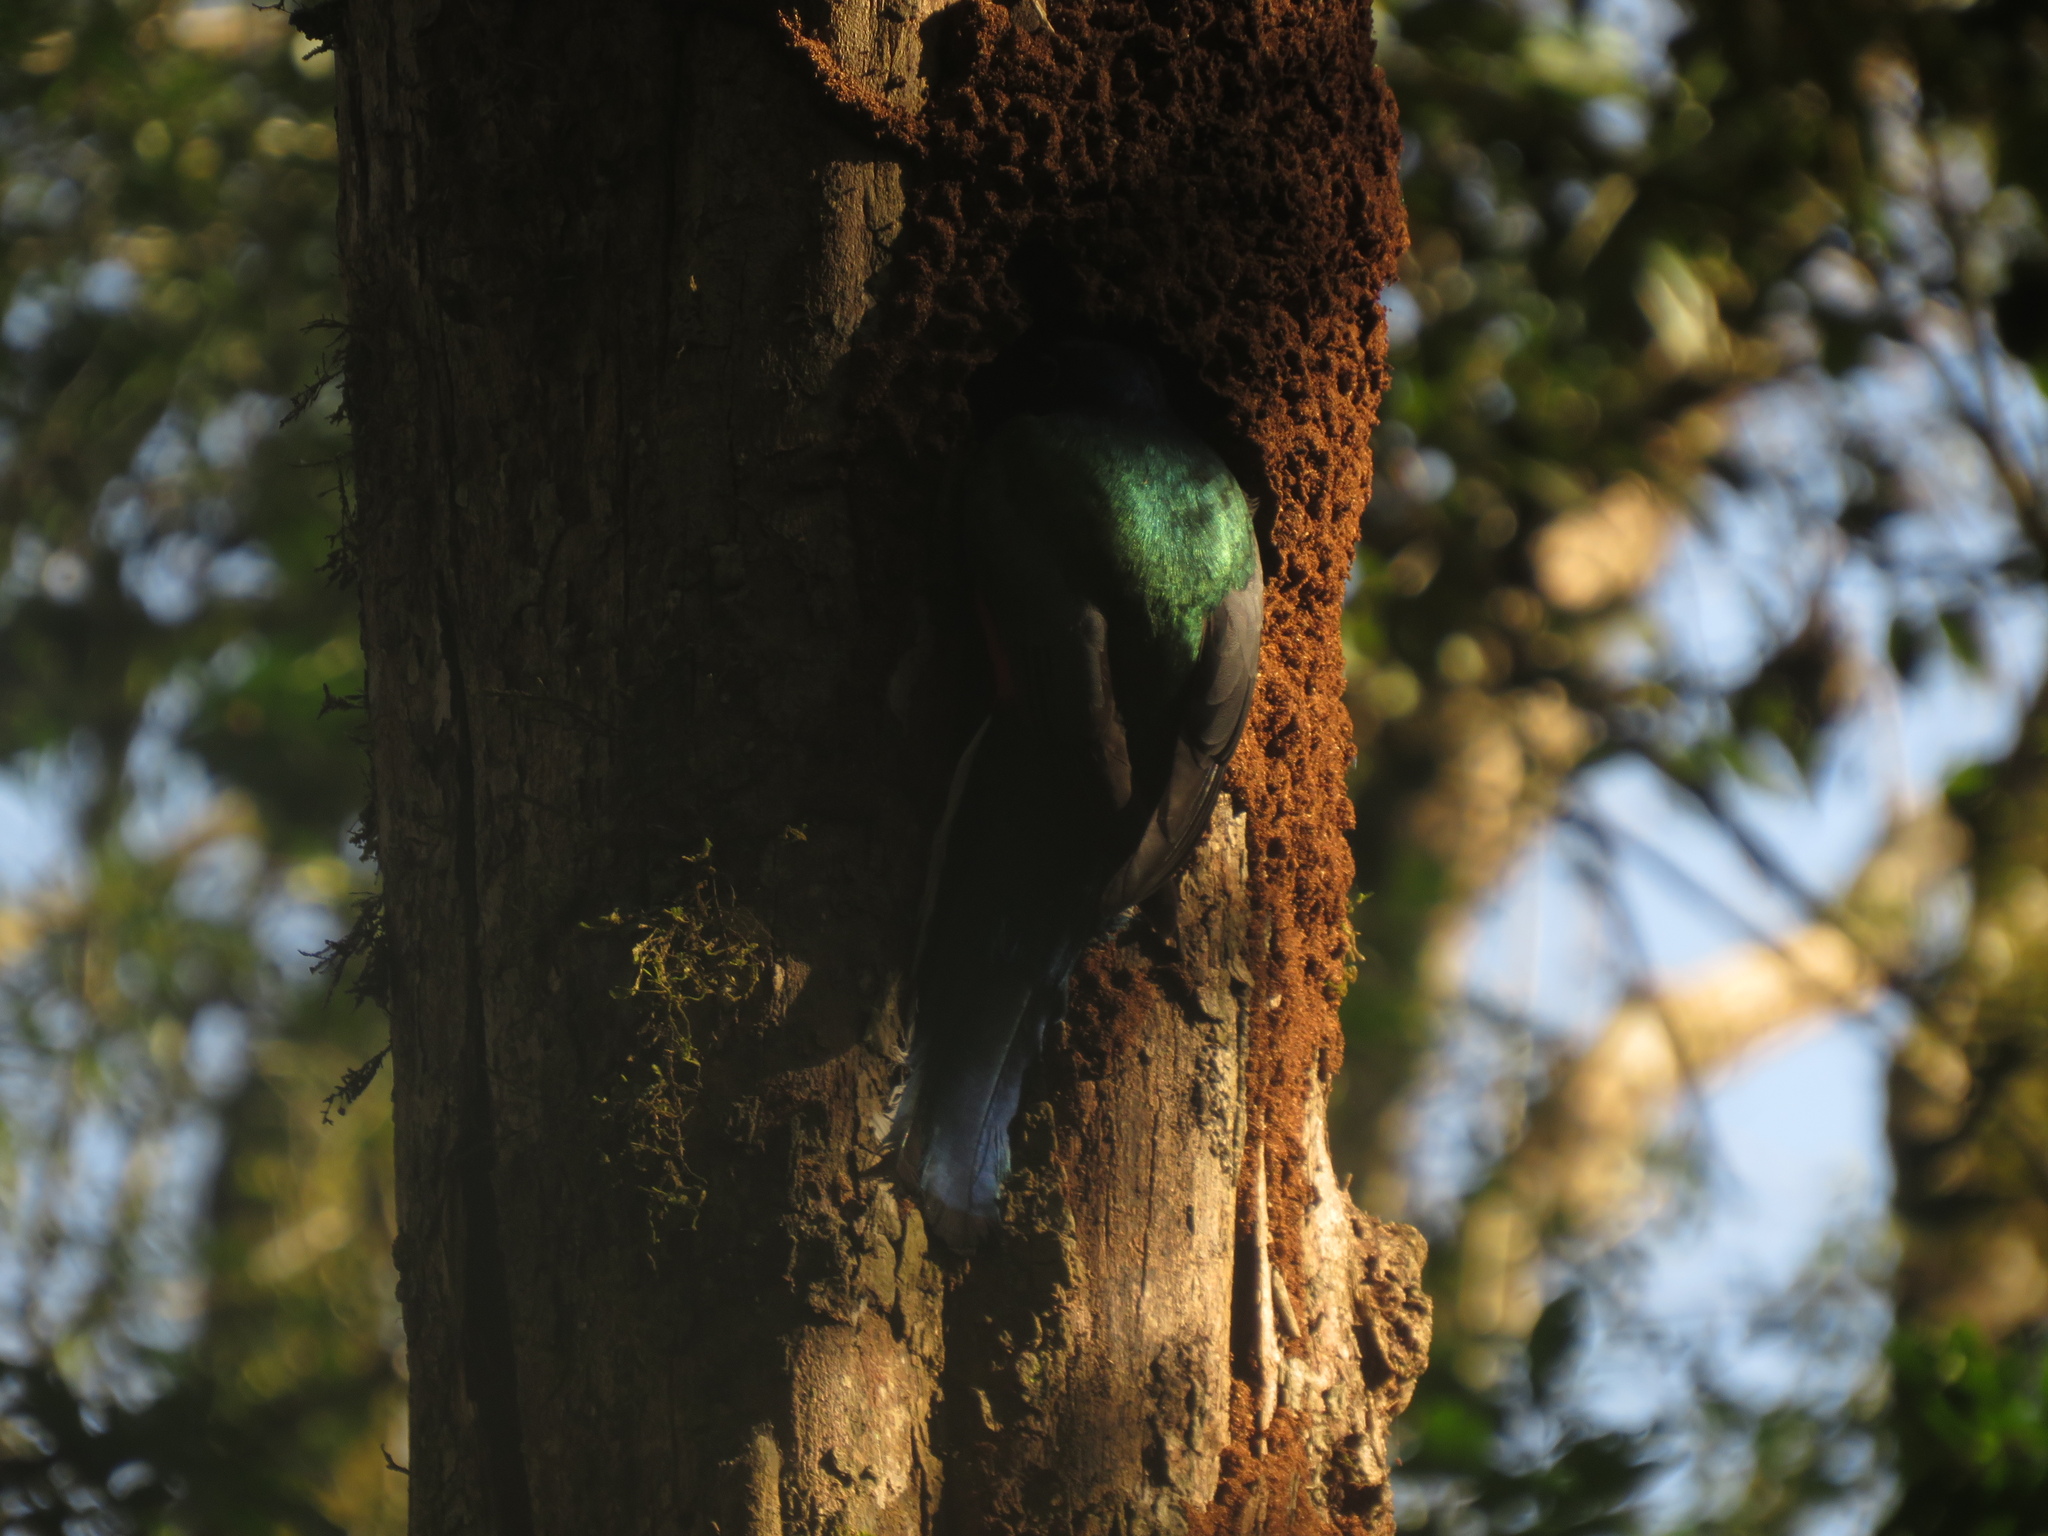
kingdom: Animalia
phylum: Chordata
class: Aves
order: Trogoniformes
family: Trogonidae
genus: Trogon
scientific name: Trogon surrucura
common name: Surucua trogon
